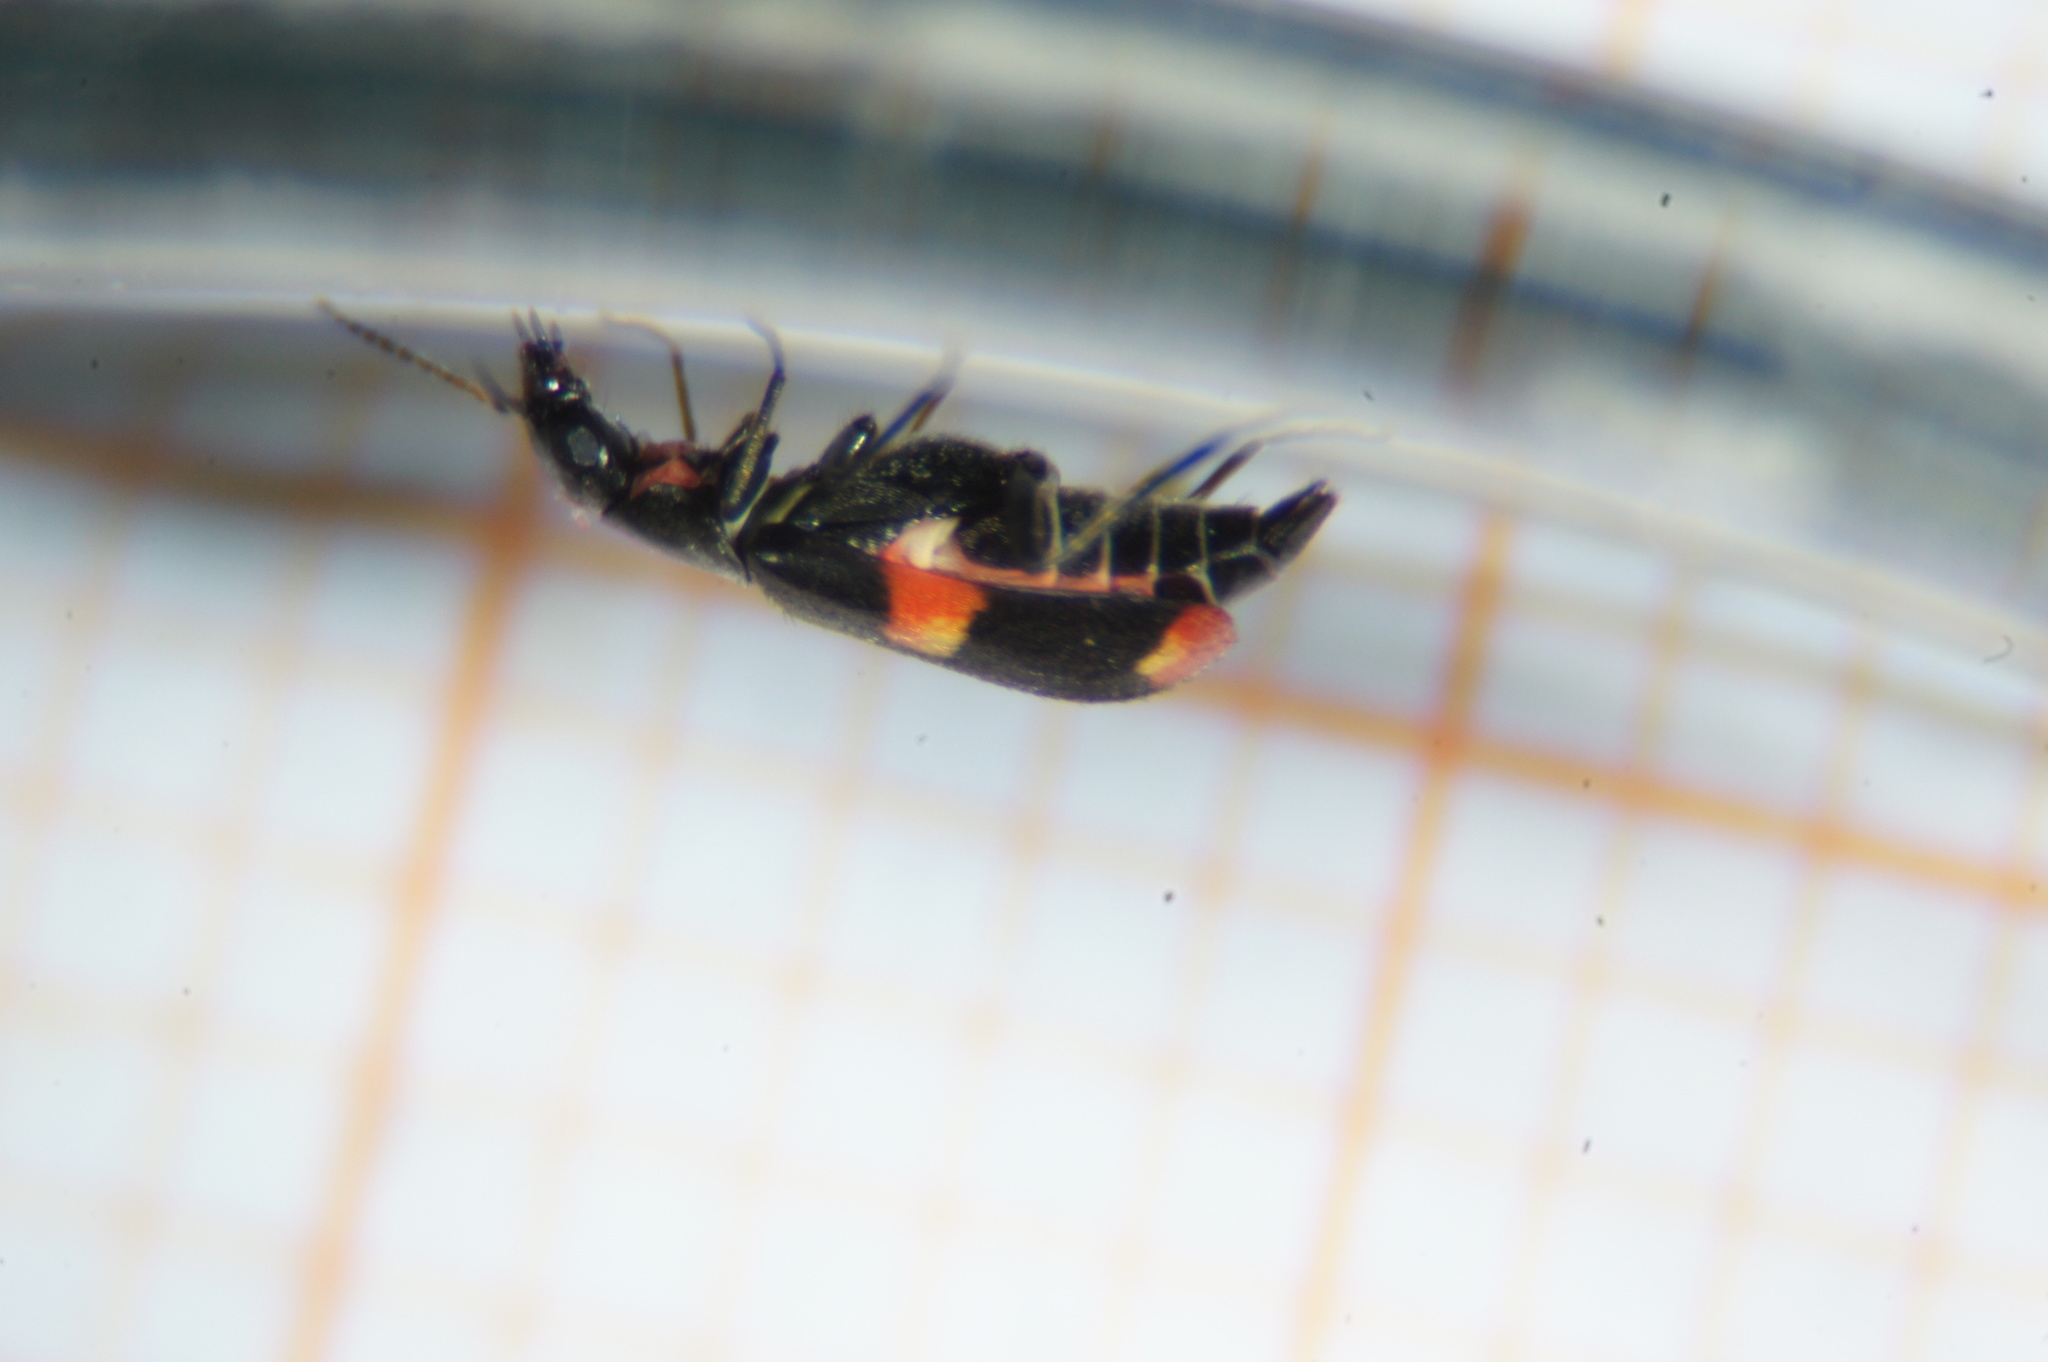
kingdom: Animalia
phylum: Arthropoda
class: Insecta
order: Coleoptera
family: Melyridae
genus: Anthocomus
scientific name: Anthocomus fasciatus
